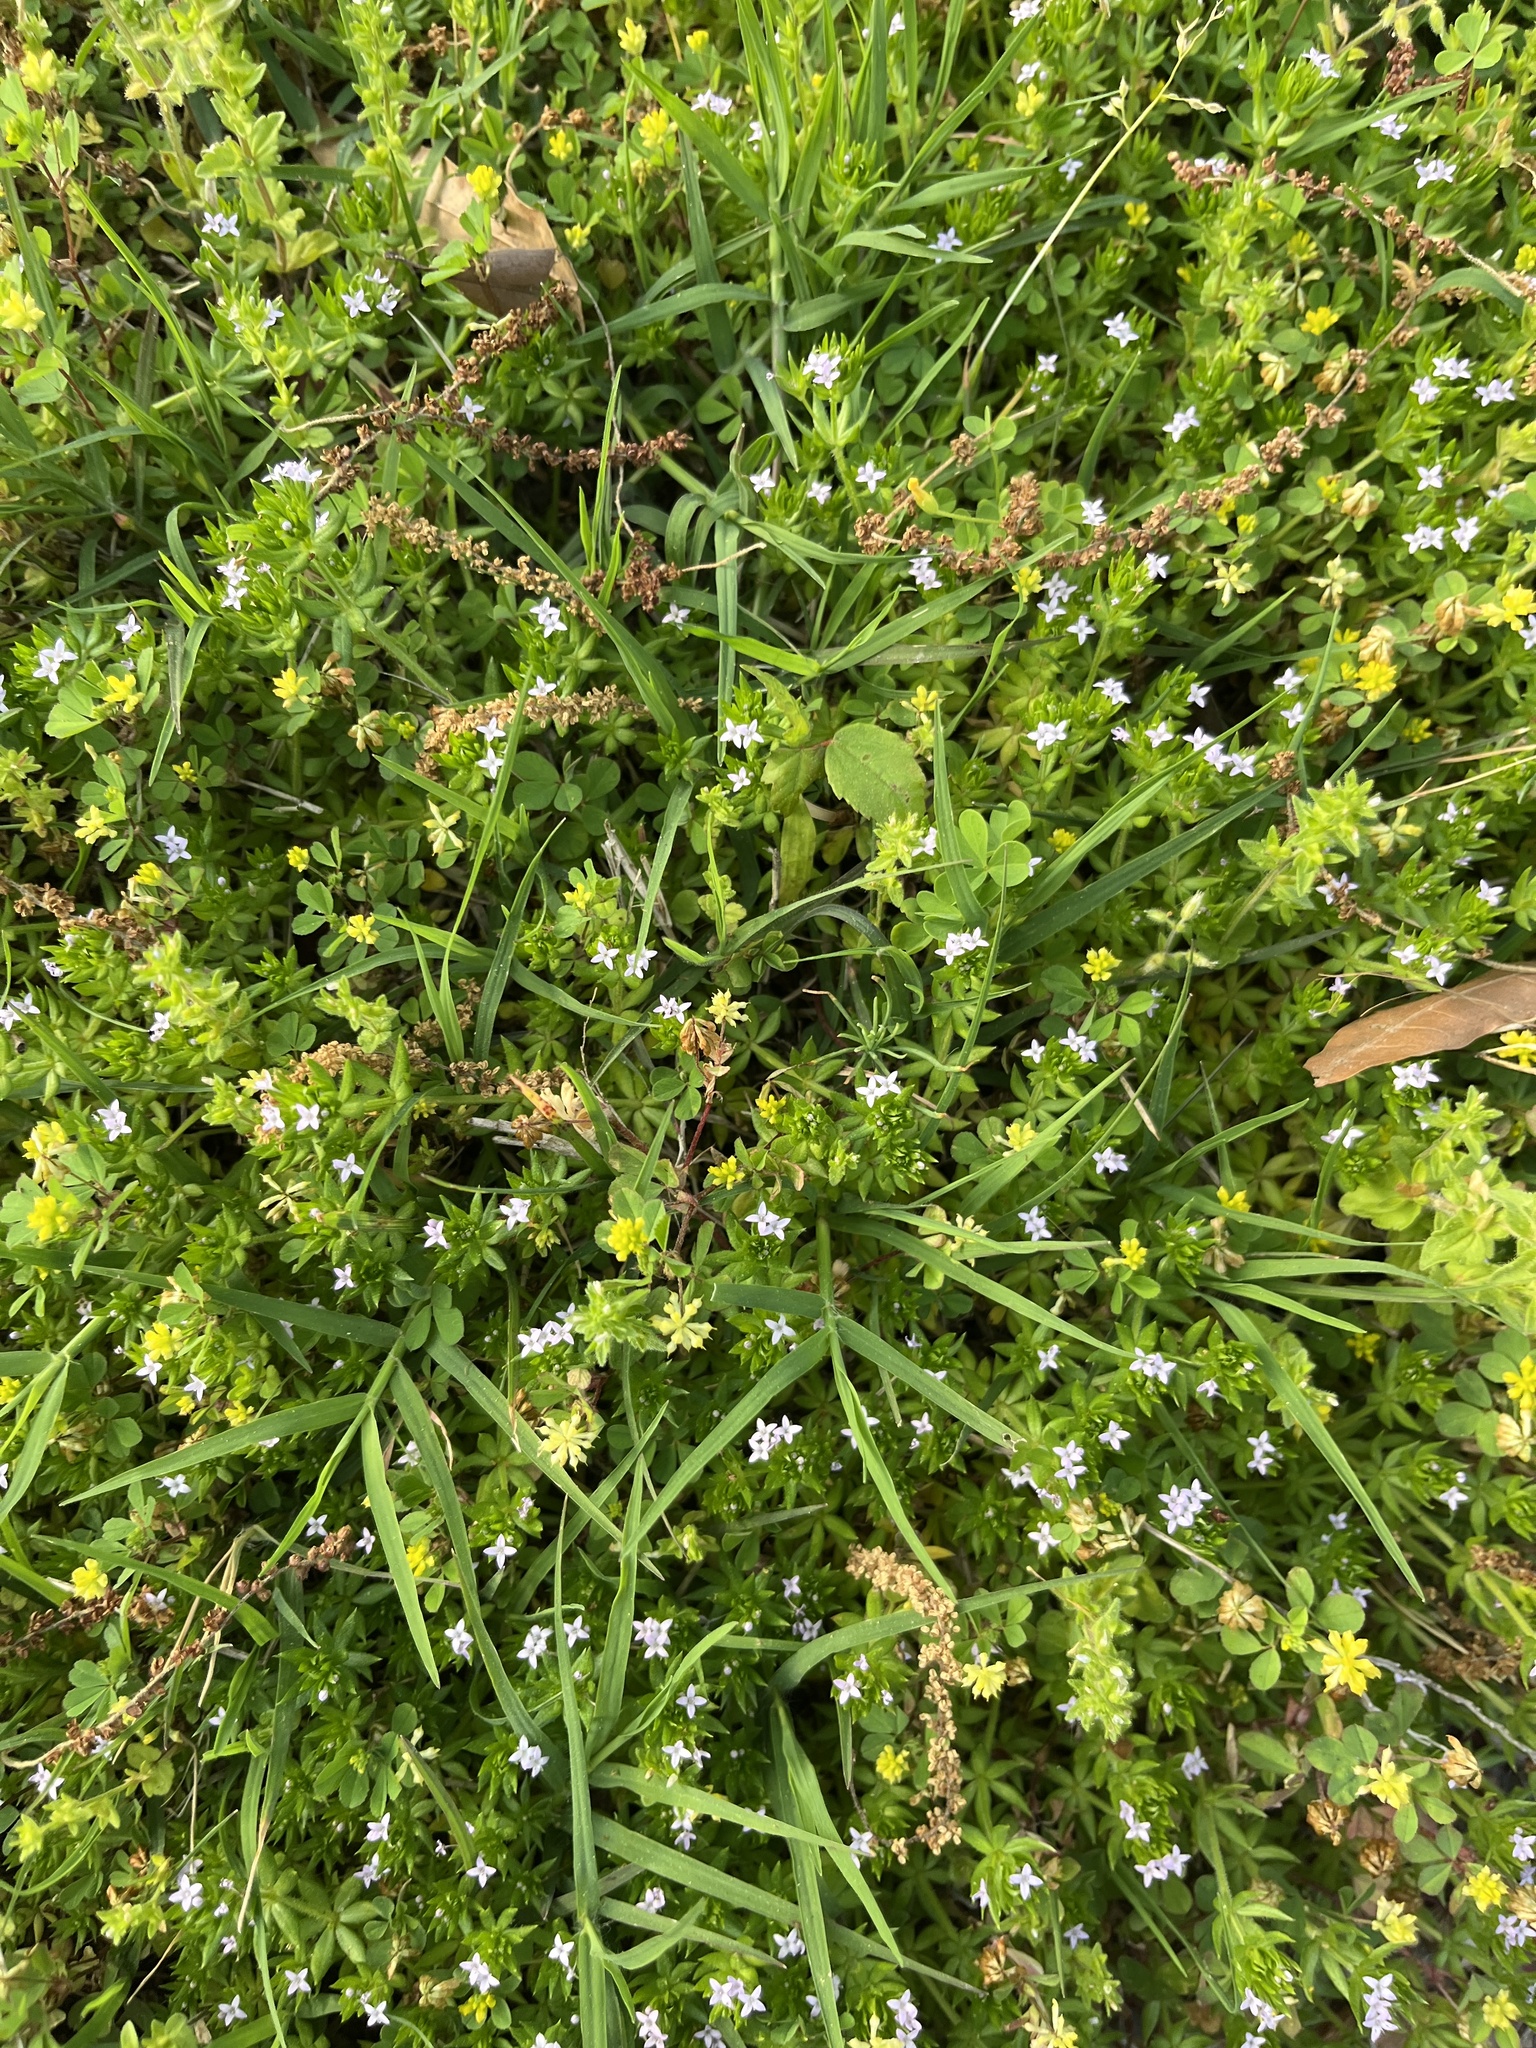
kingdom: Plantae
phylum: Tracheophyta
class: Magnoliopsida
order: Gentianales
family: Rubiaceae
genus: Sherardia
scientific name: Sherardia arvensis
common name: Field madder
